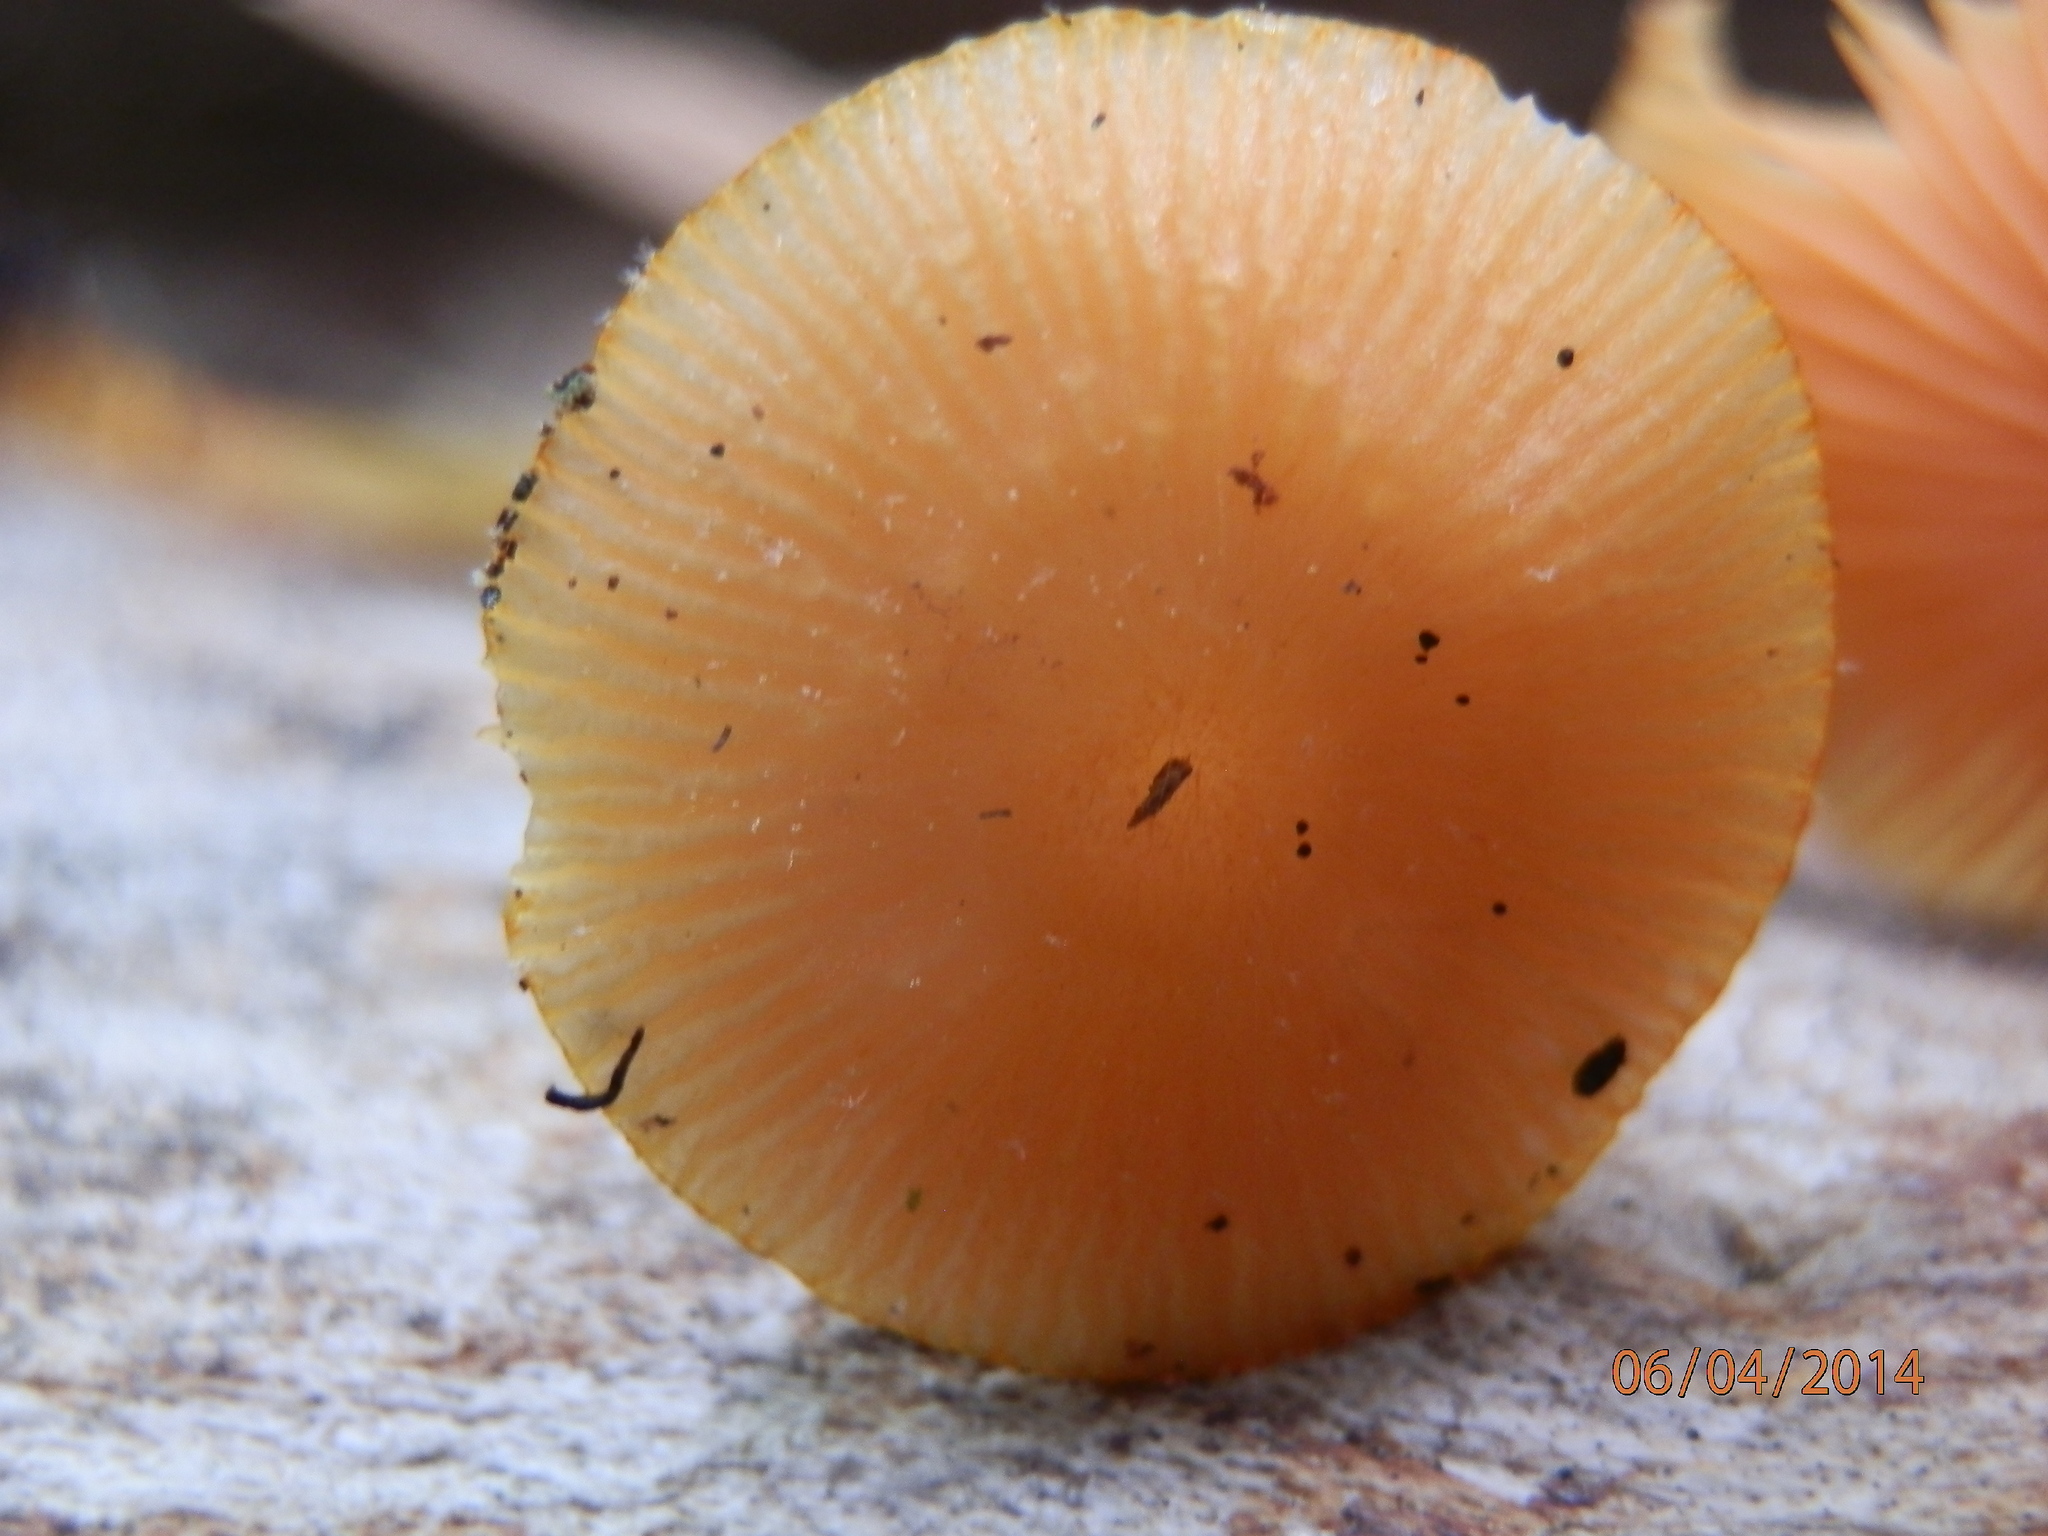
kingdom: Fungi
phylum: Basidiomycota
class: Agaricomycetes
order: Agaricales
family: Mycenaceae
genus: Mycena
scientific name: Mycena leaiana
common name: Orange mycena
